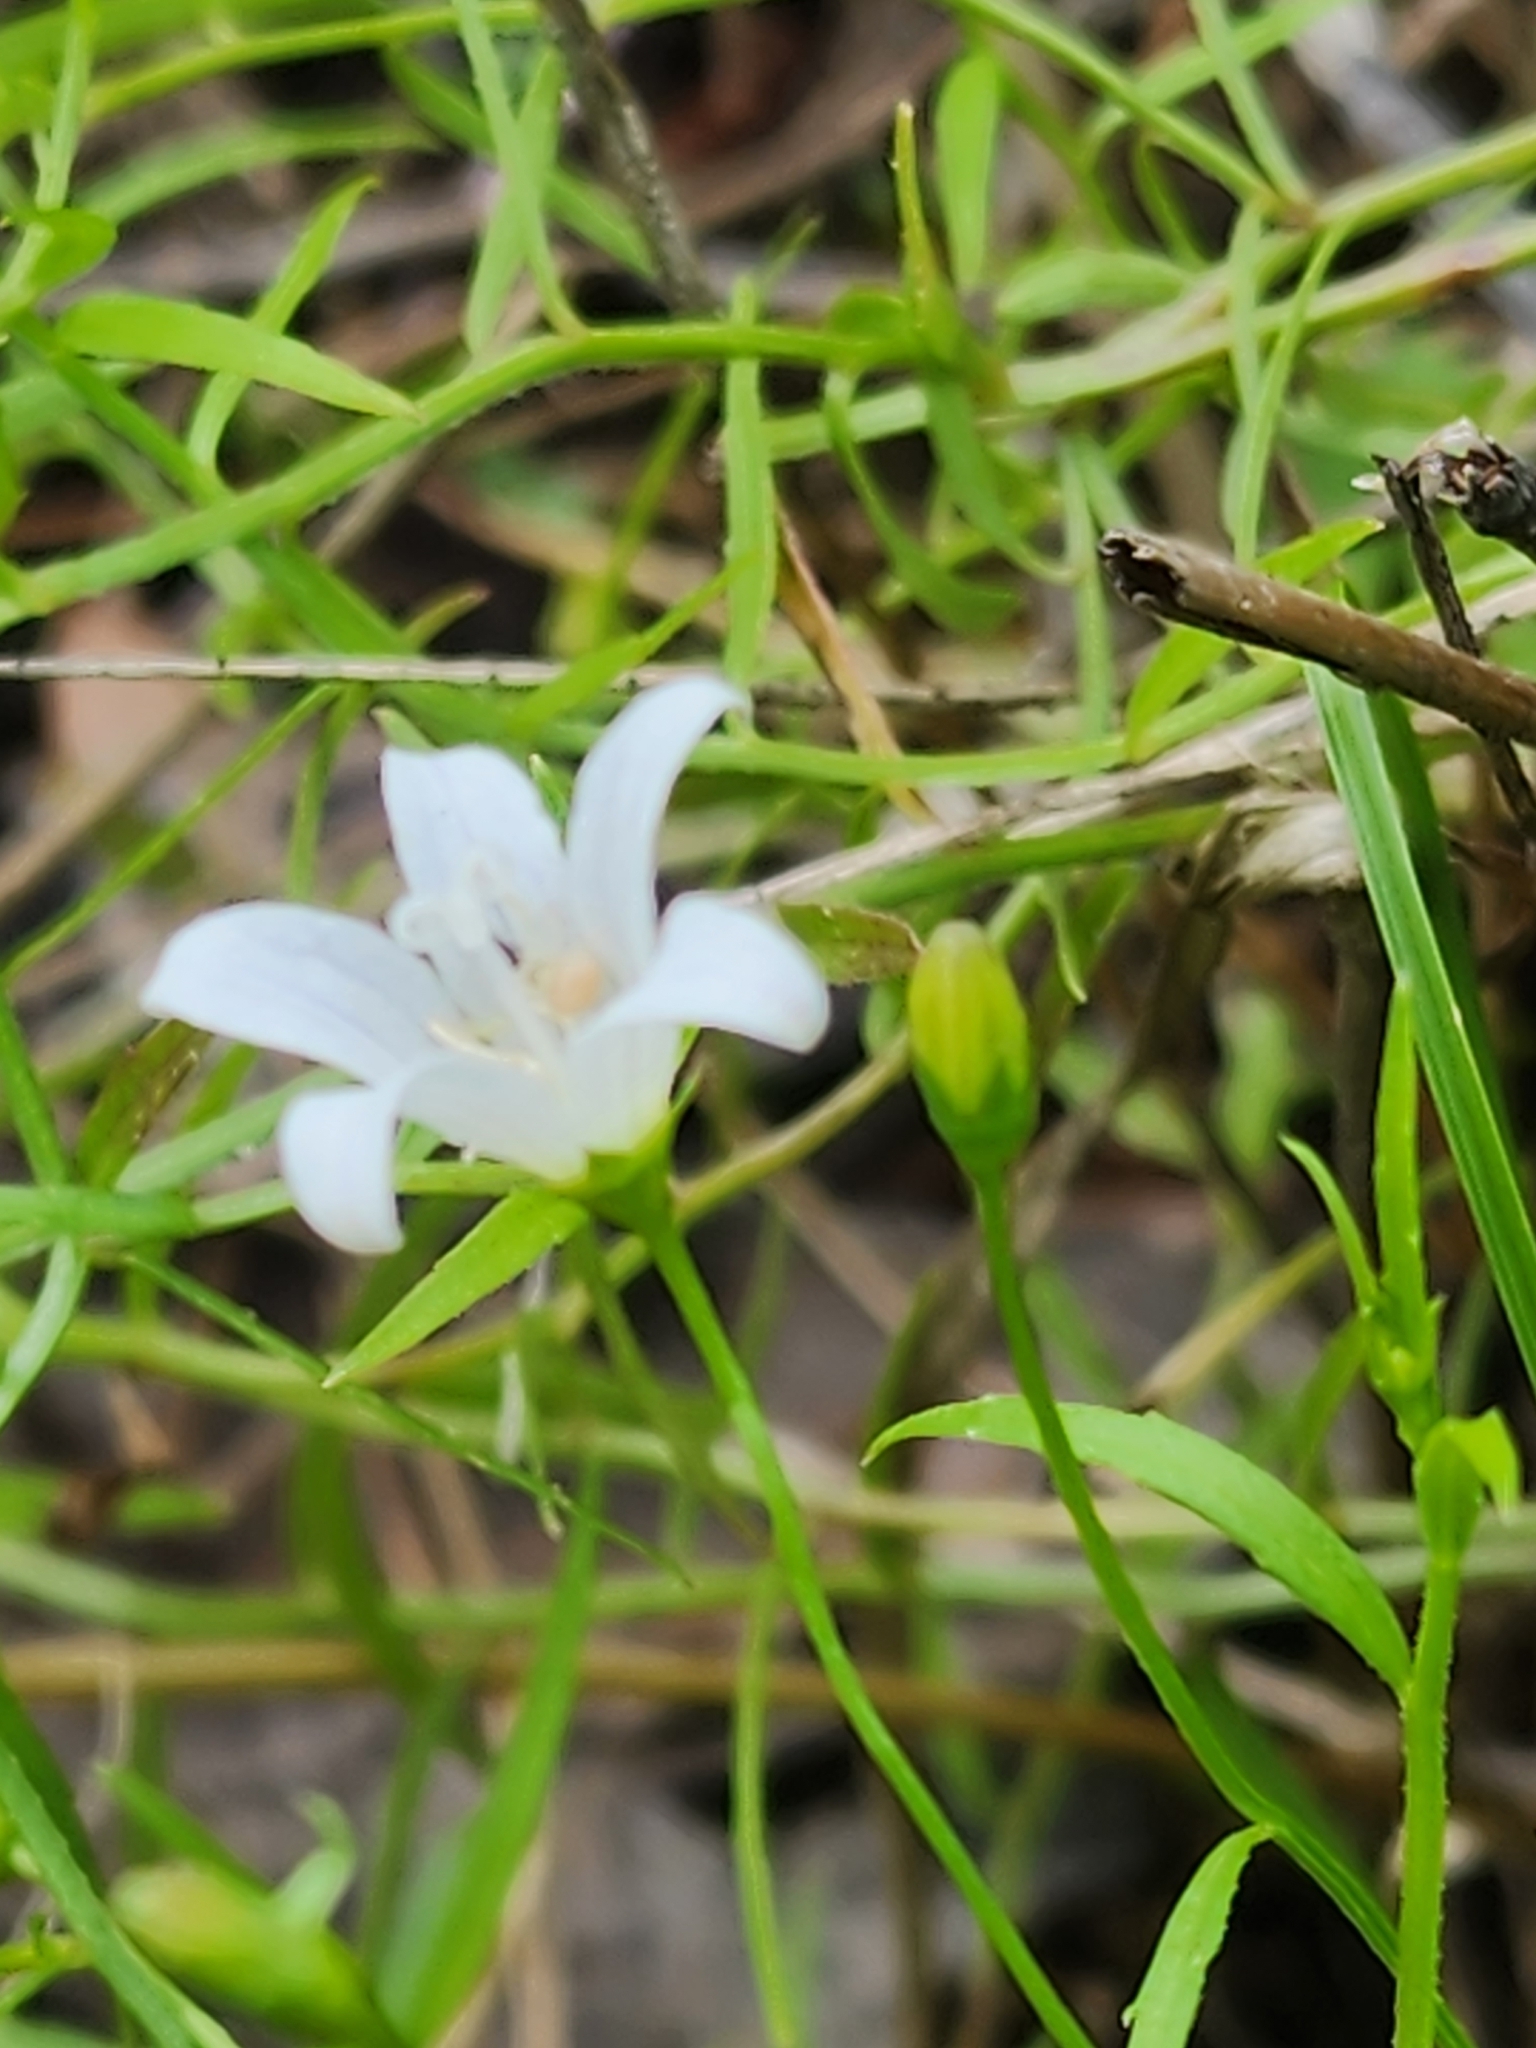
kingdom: Plantae
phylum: Tracheophyta
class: Magnoliopsida
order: Asterales
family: Campanulaceae
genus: Palustricodon
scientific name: Palustricodon aparinoides
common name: Bedstraw bellflower
